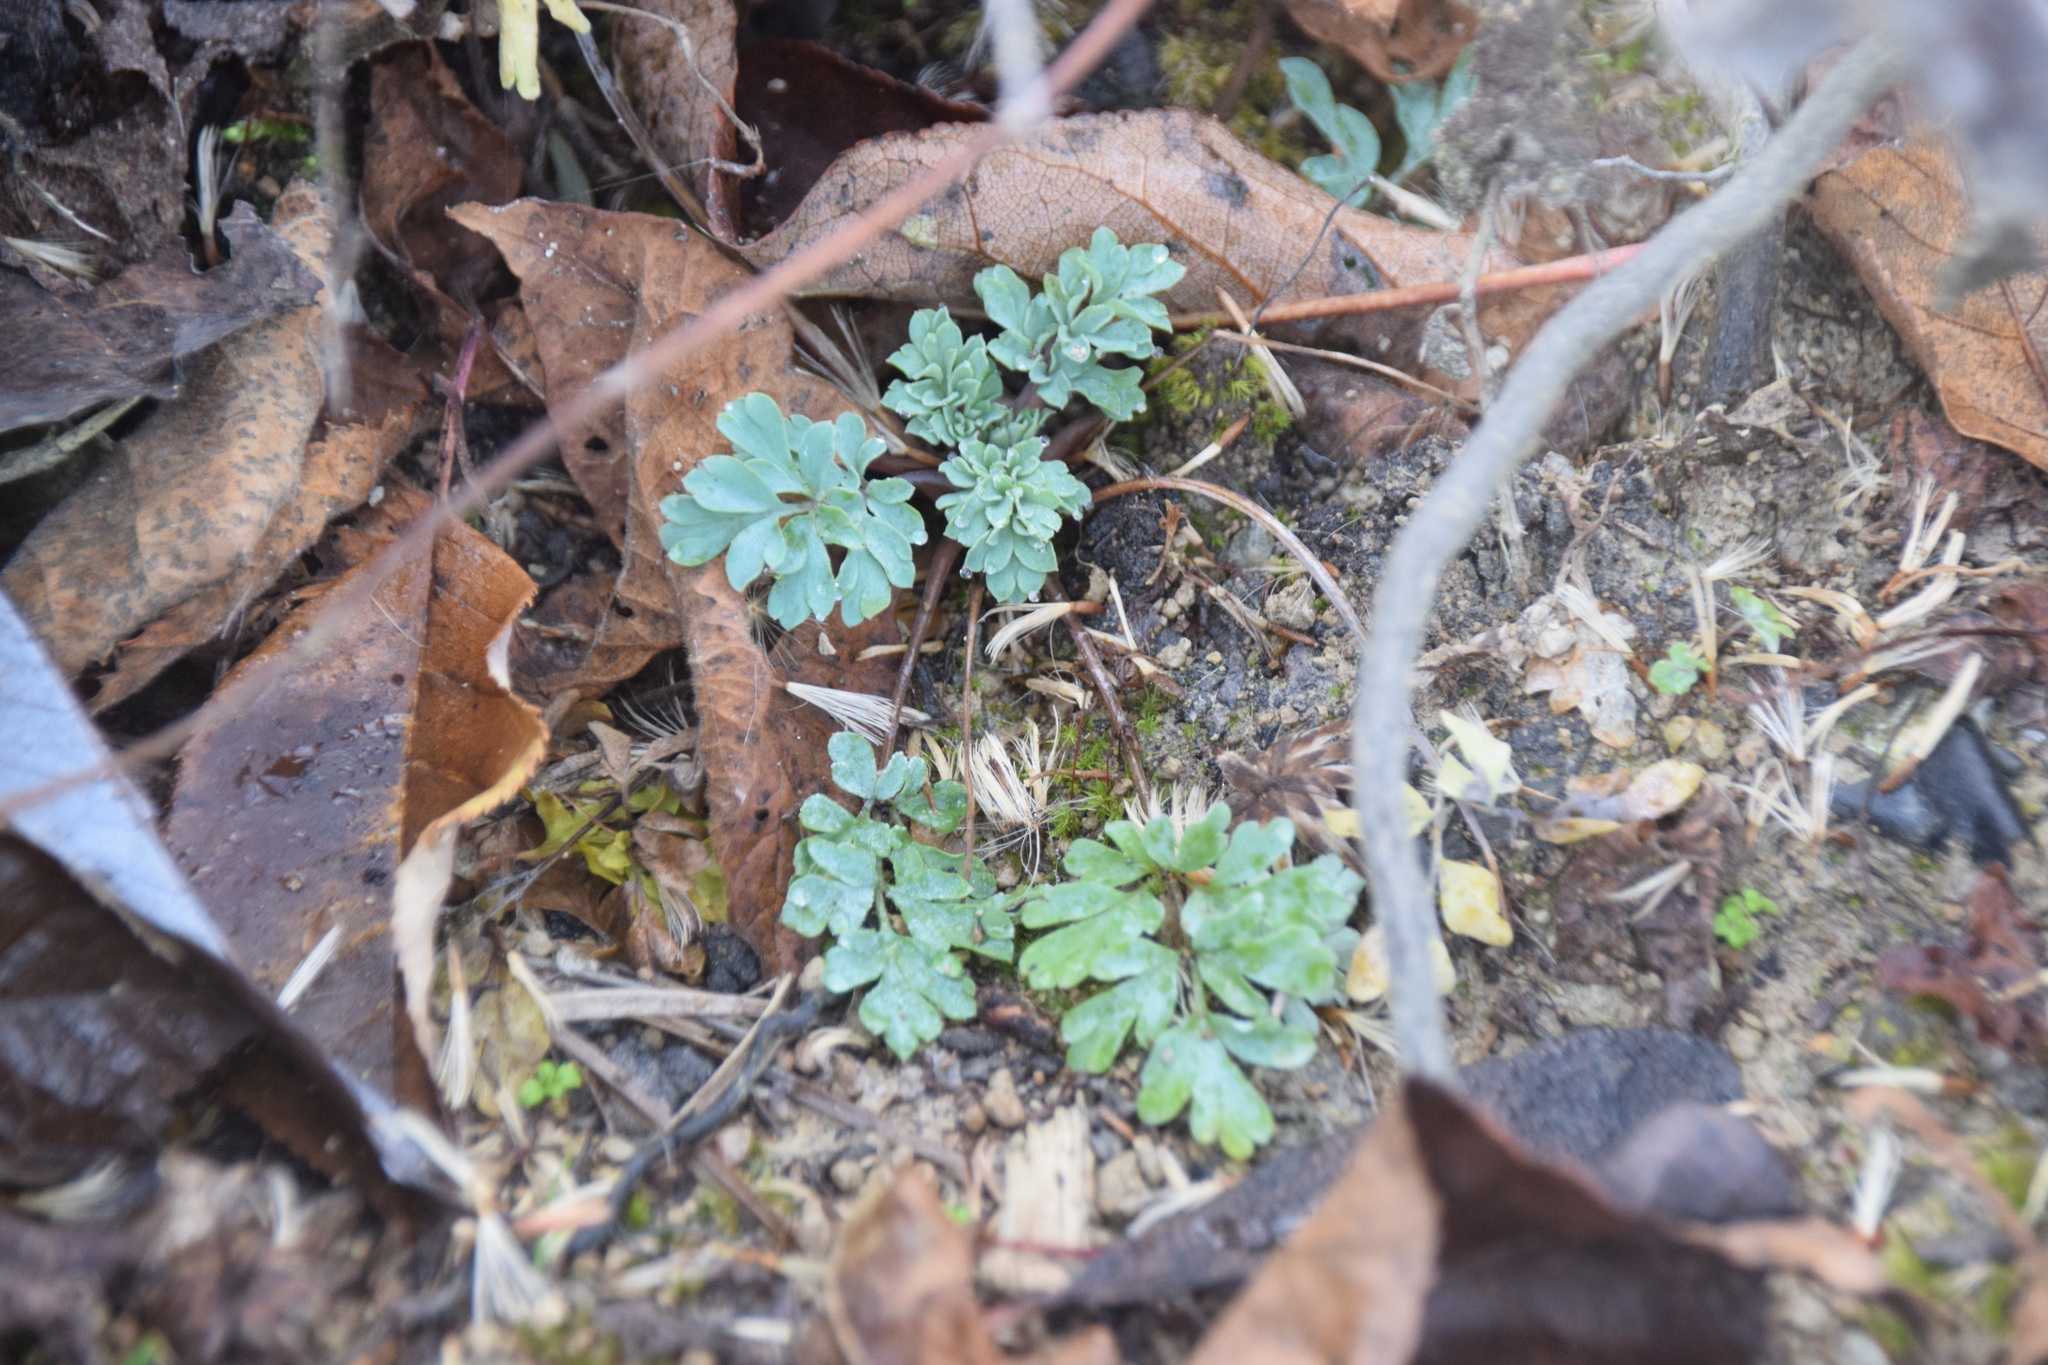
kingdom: Plantae
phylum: Tracheophyta
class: Magnoliopsida
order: Ranunculales
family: Papaveraceae
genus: Capnoides
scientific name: Capnoides sempervirens
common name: Rock harlequin
